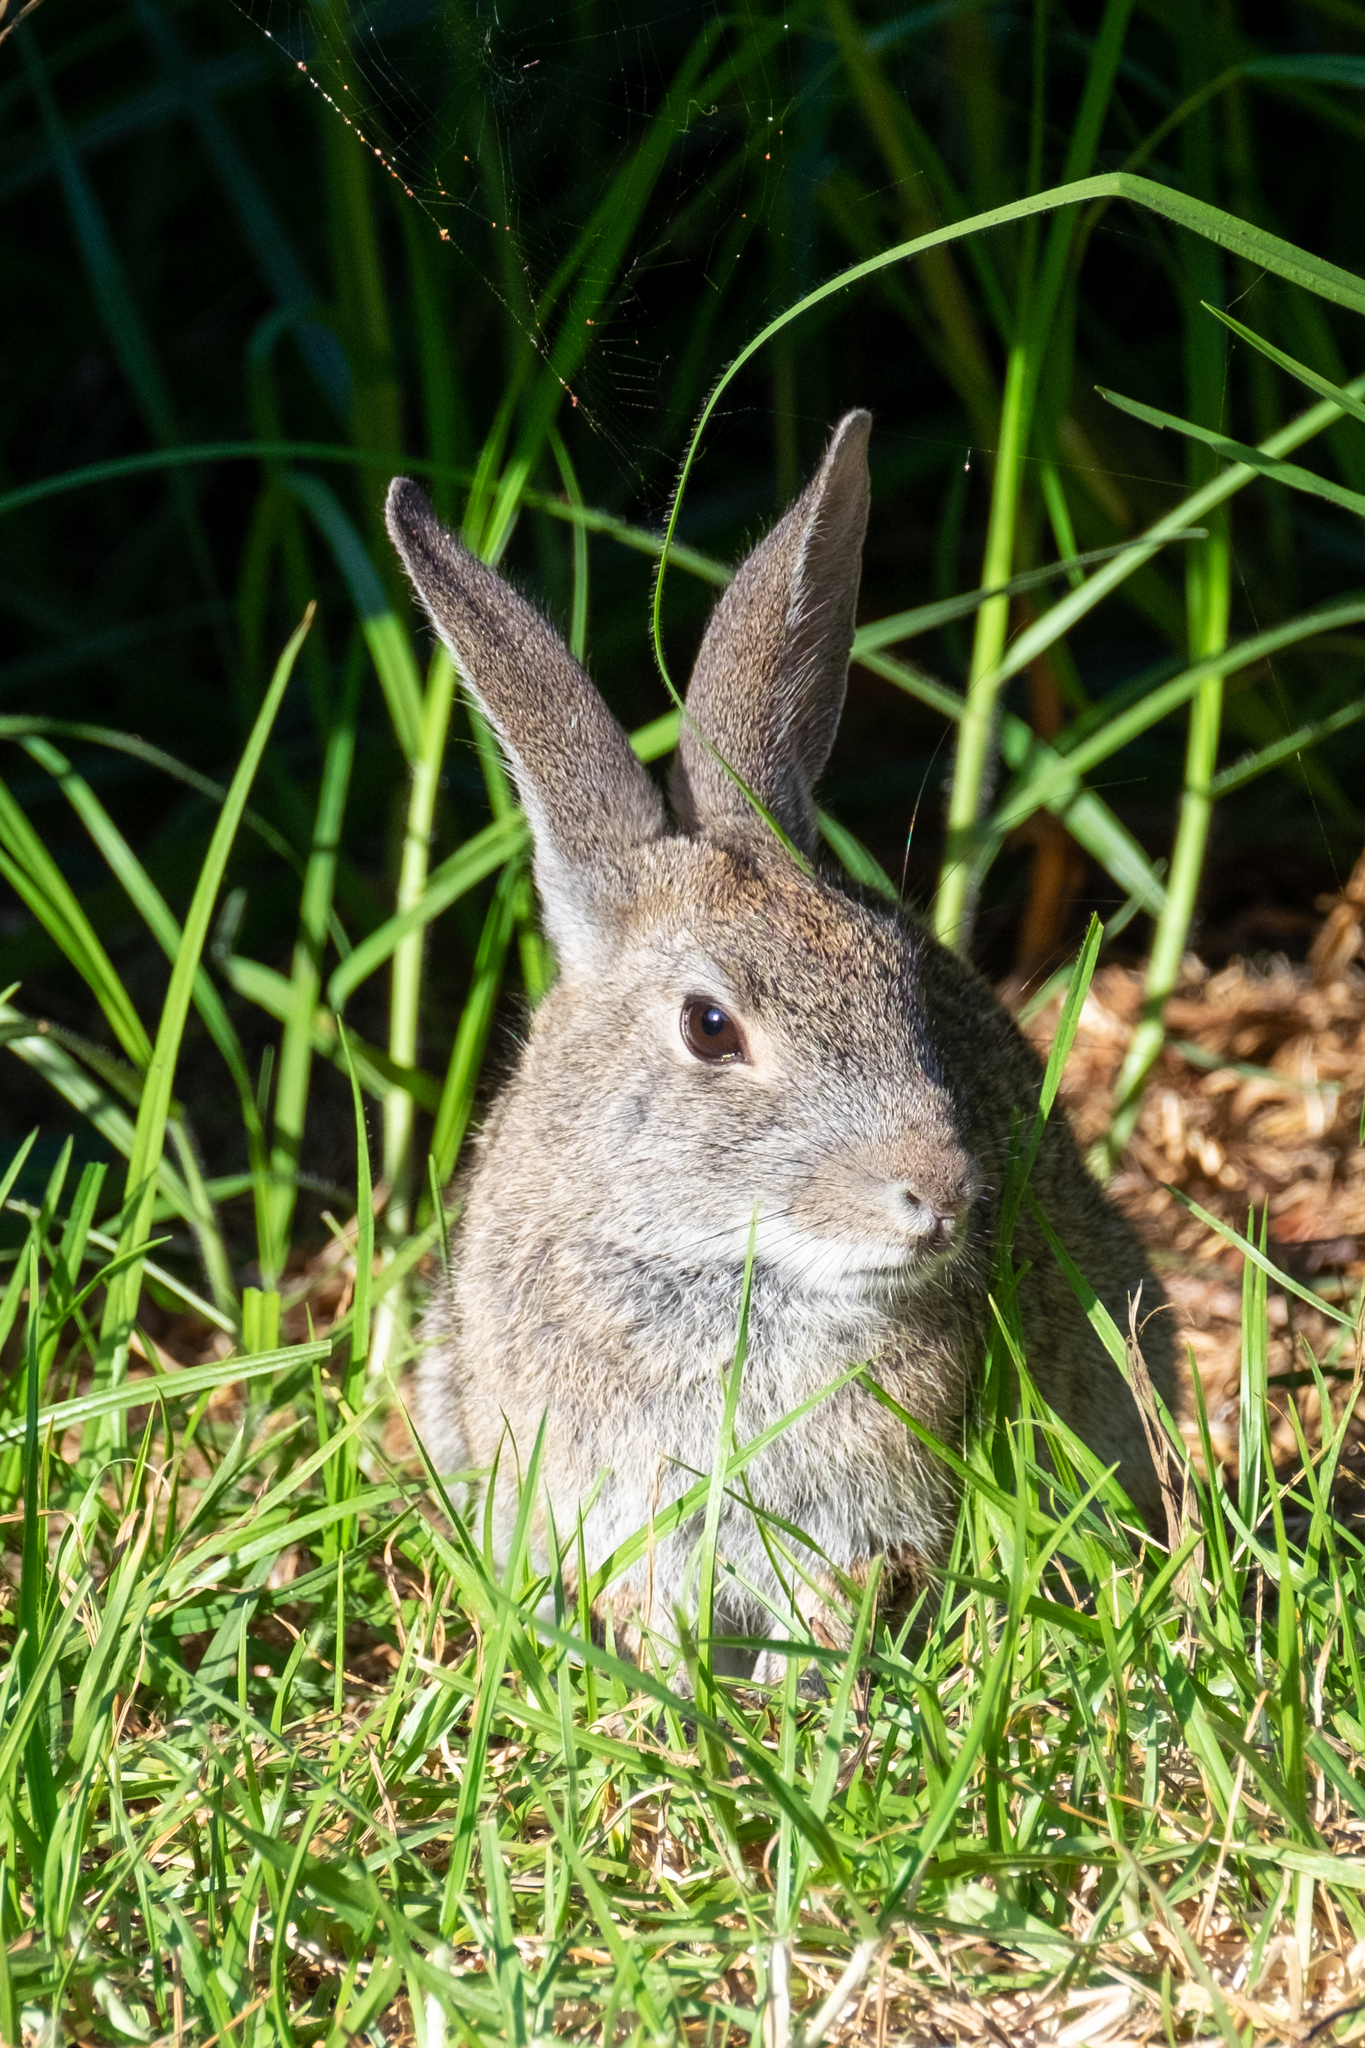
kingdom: Animalia
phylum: Chordata
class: Mammalia
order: Lagomorpha
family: Leporidae
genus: Sylvilagus
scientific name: Sylvilagus bachmani
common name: Brush rabbit
